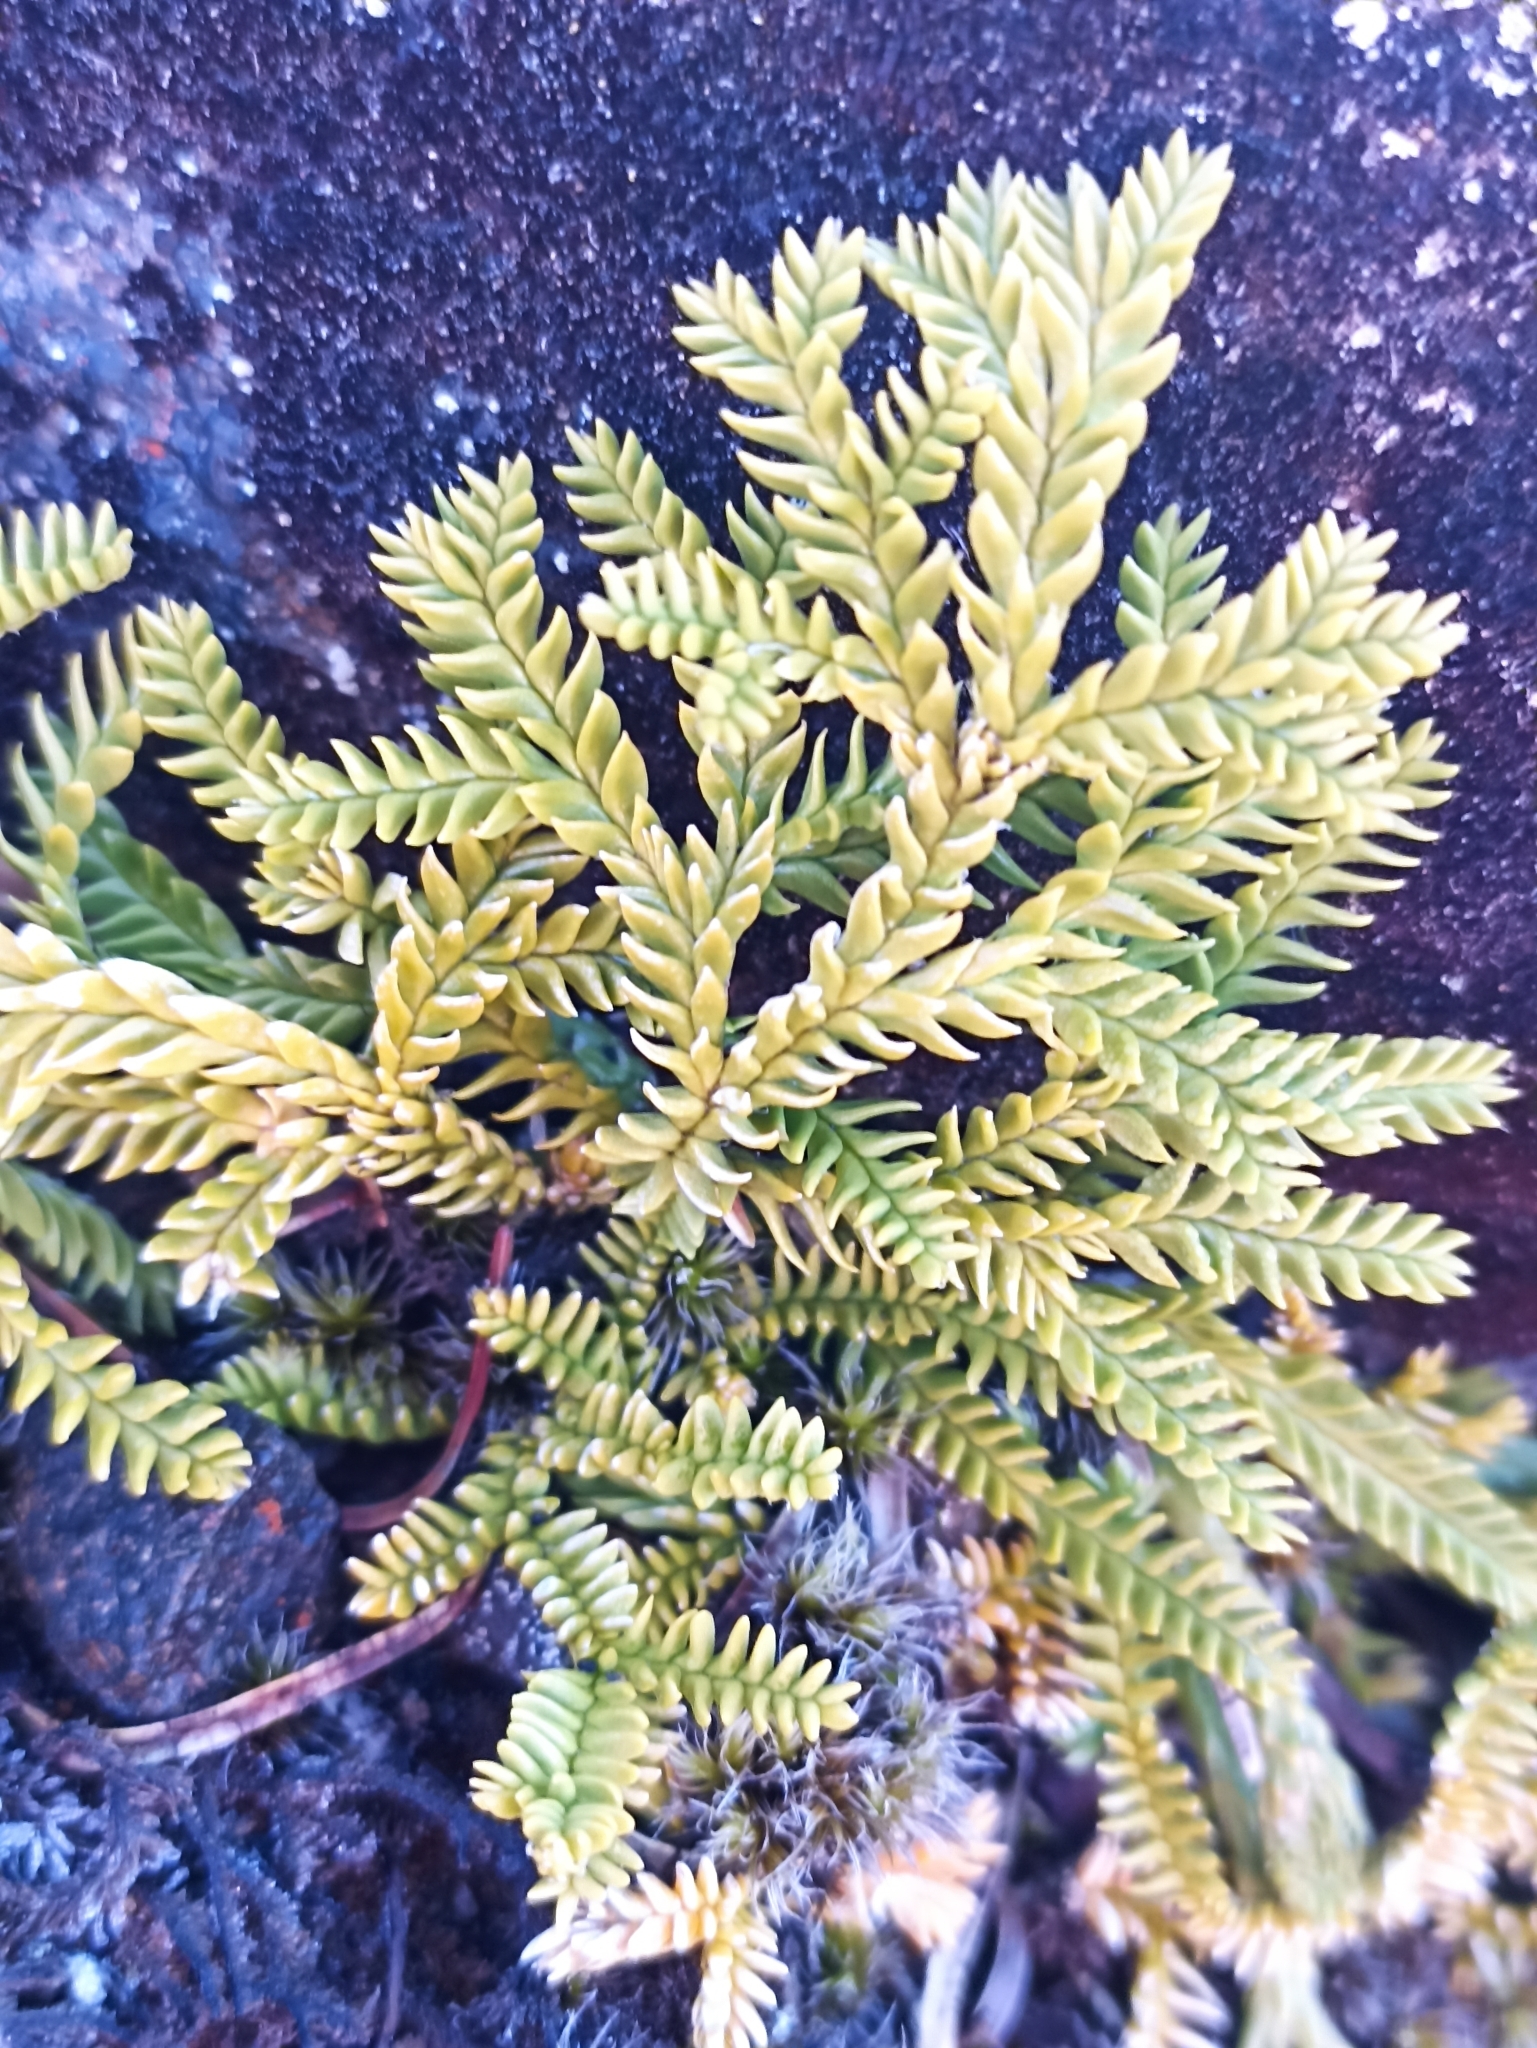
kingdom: Plantae
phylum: Tracheophyta
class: Lycopodiopsida
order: Lycopodiales
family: Lycopodiaceae
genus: Diphasium
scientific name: Diphasium scariosum
